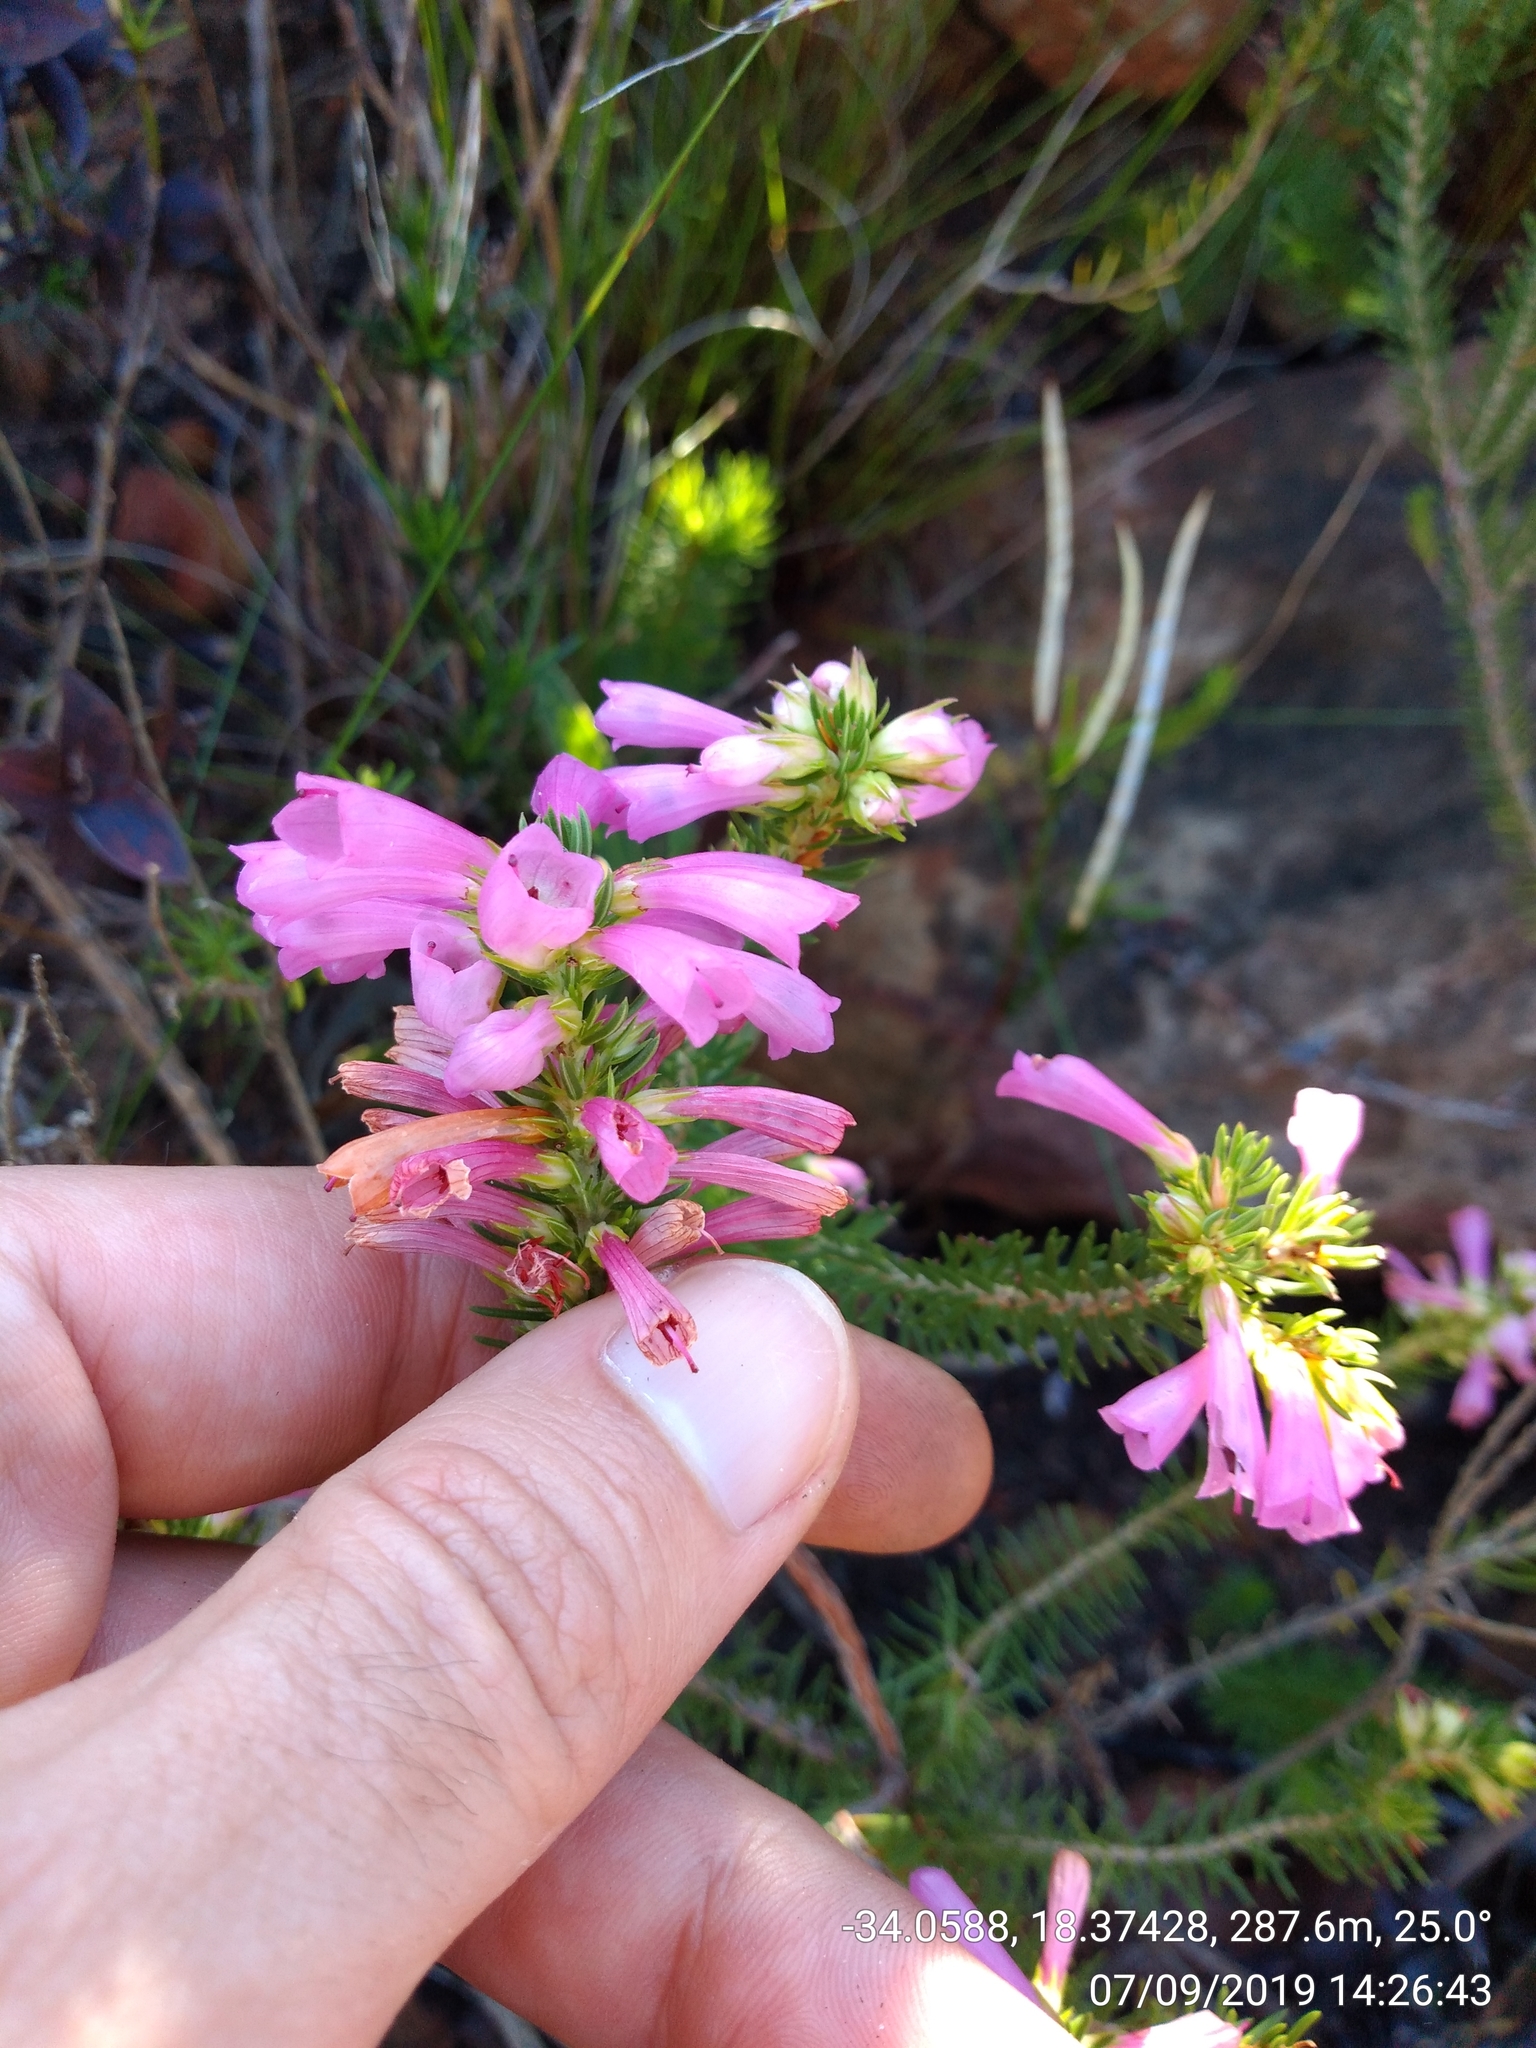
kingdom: Plantae
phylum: Tracheophyta
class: Magnoliopsida
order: Ericales
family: Ericaceae
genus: Erica
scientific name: Erica abietina
